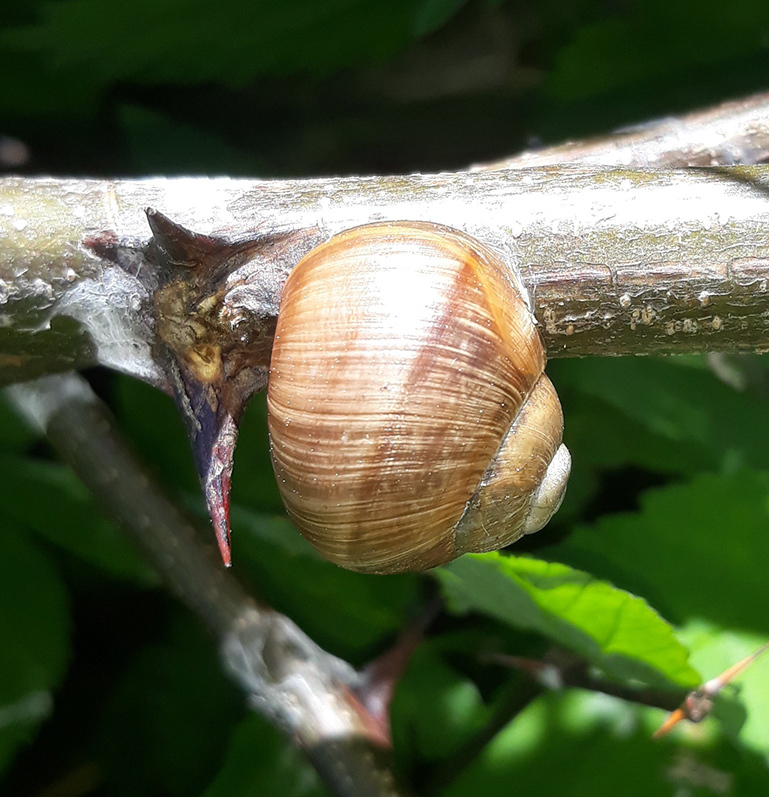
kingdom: Animalia
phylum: Mollusca
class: Gastropoda
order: Stylommatophora
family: Helicidae
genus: Helix
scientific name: Helix pomatia
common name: Roman snail
